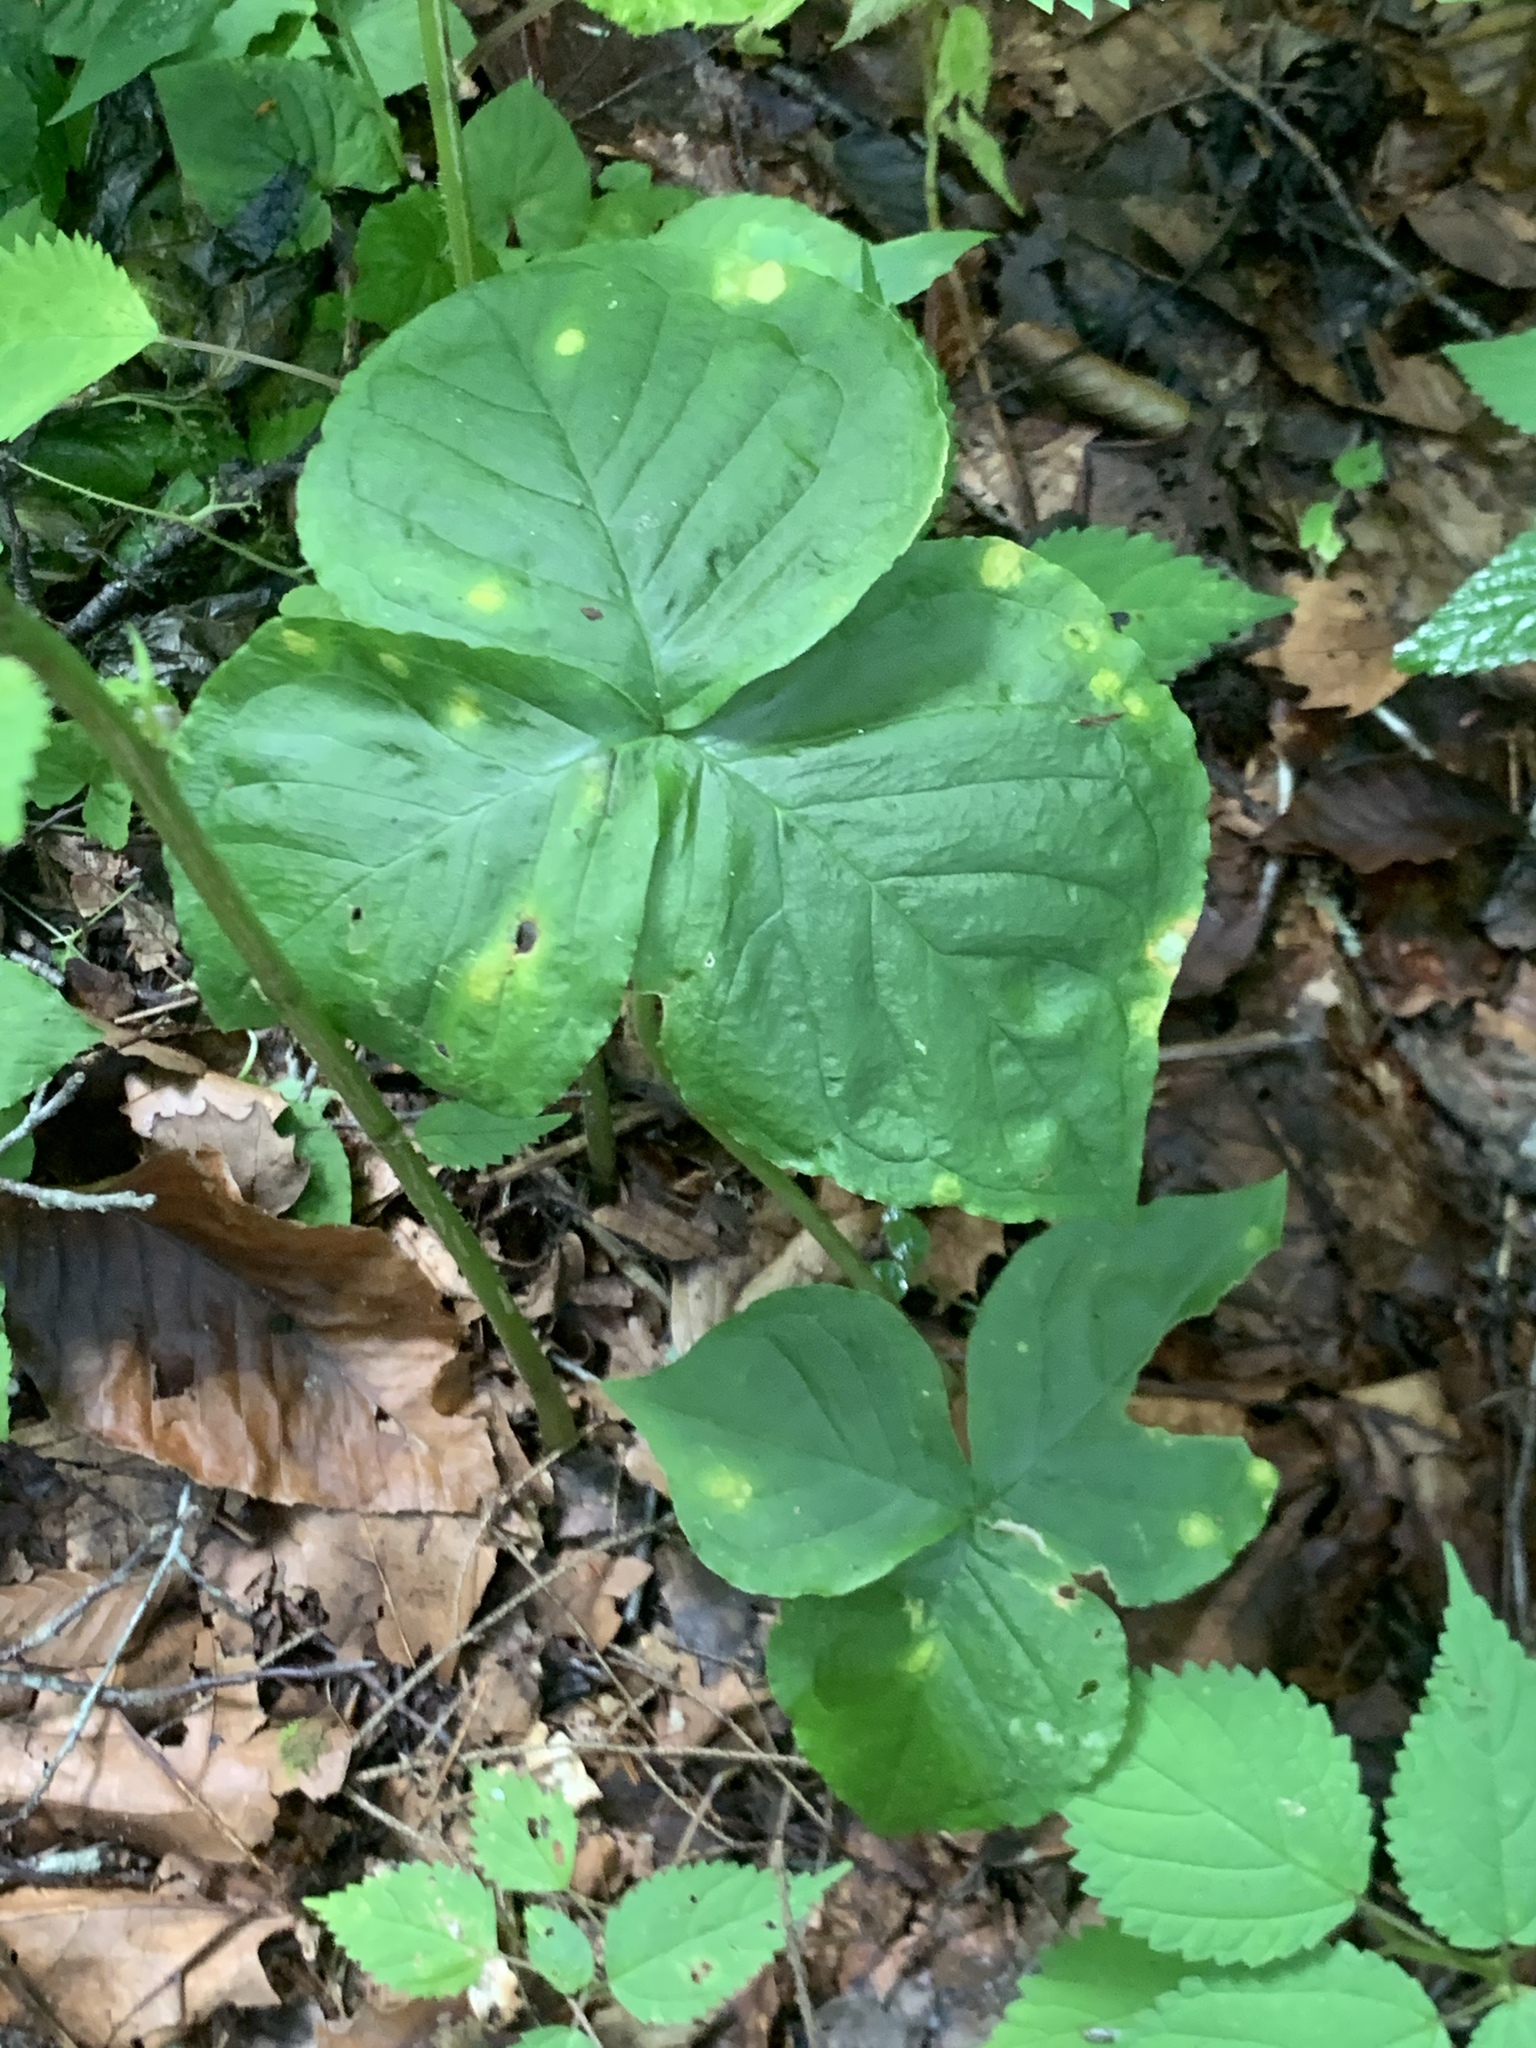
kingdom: Plantae
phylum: Tracheophyta
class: Liliopsida
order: Alismatales
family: Araceae
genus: Arisaema
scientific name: Arisaema triphyllum
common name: Jack-in-the-pulpit
